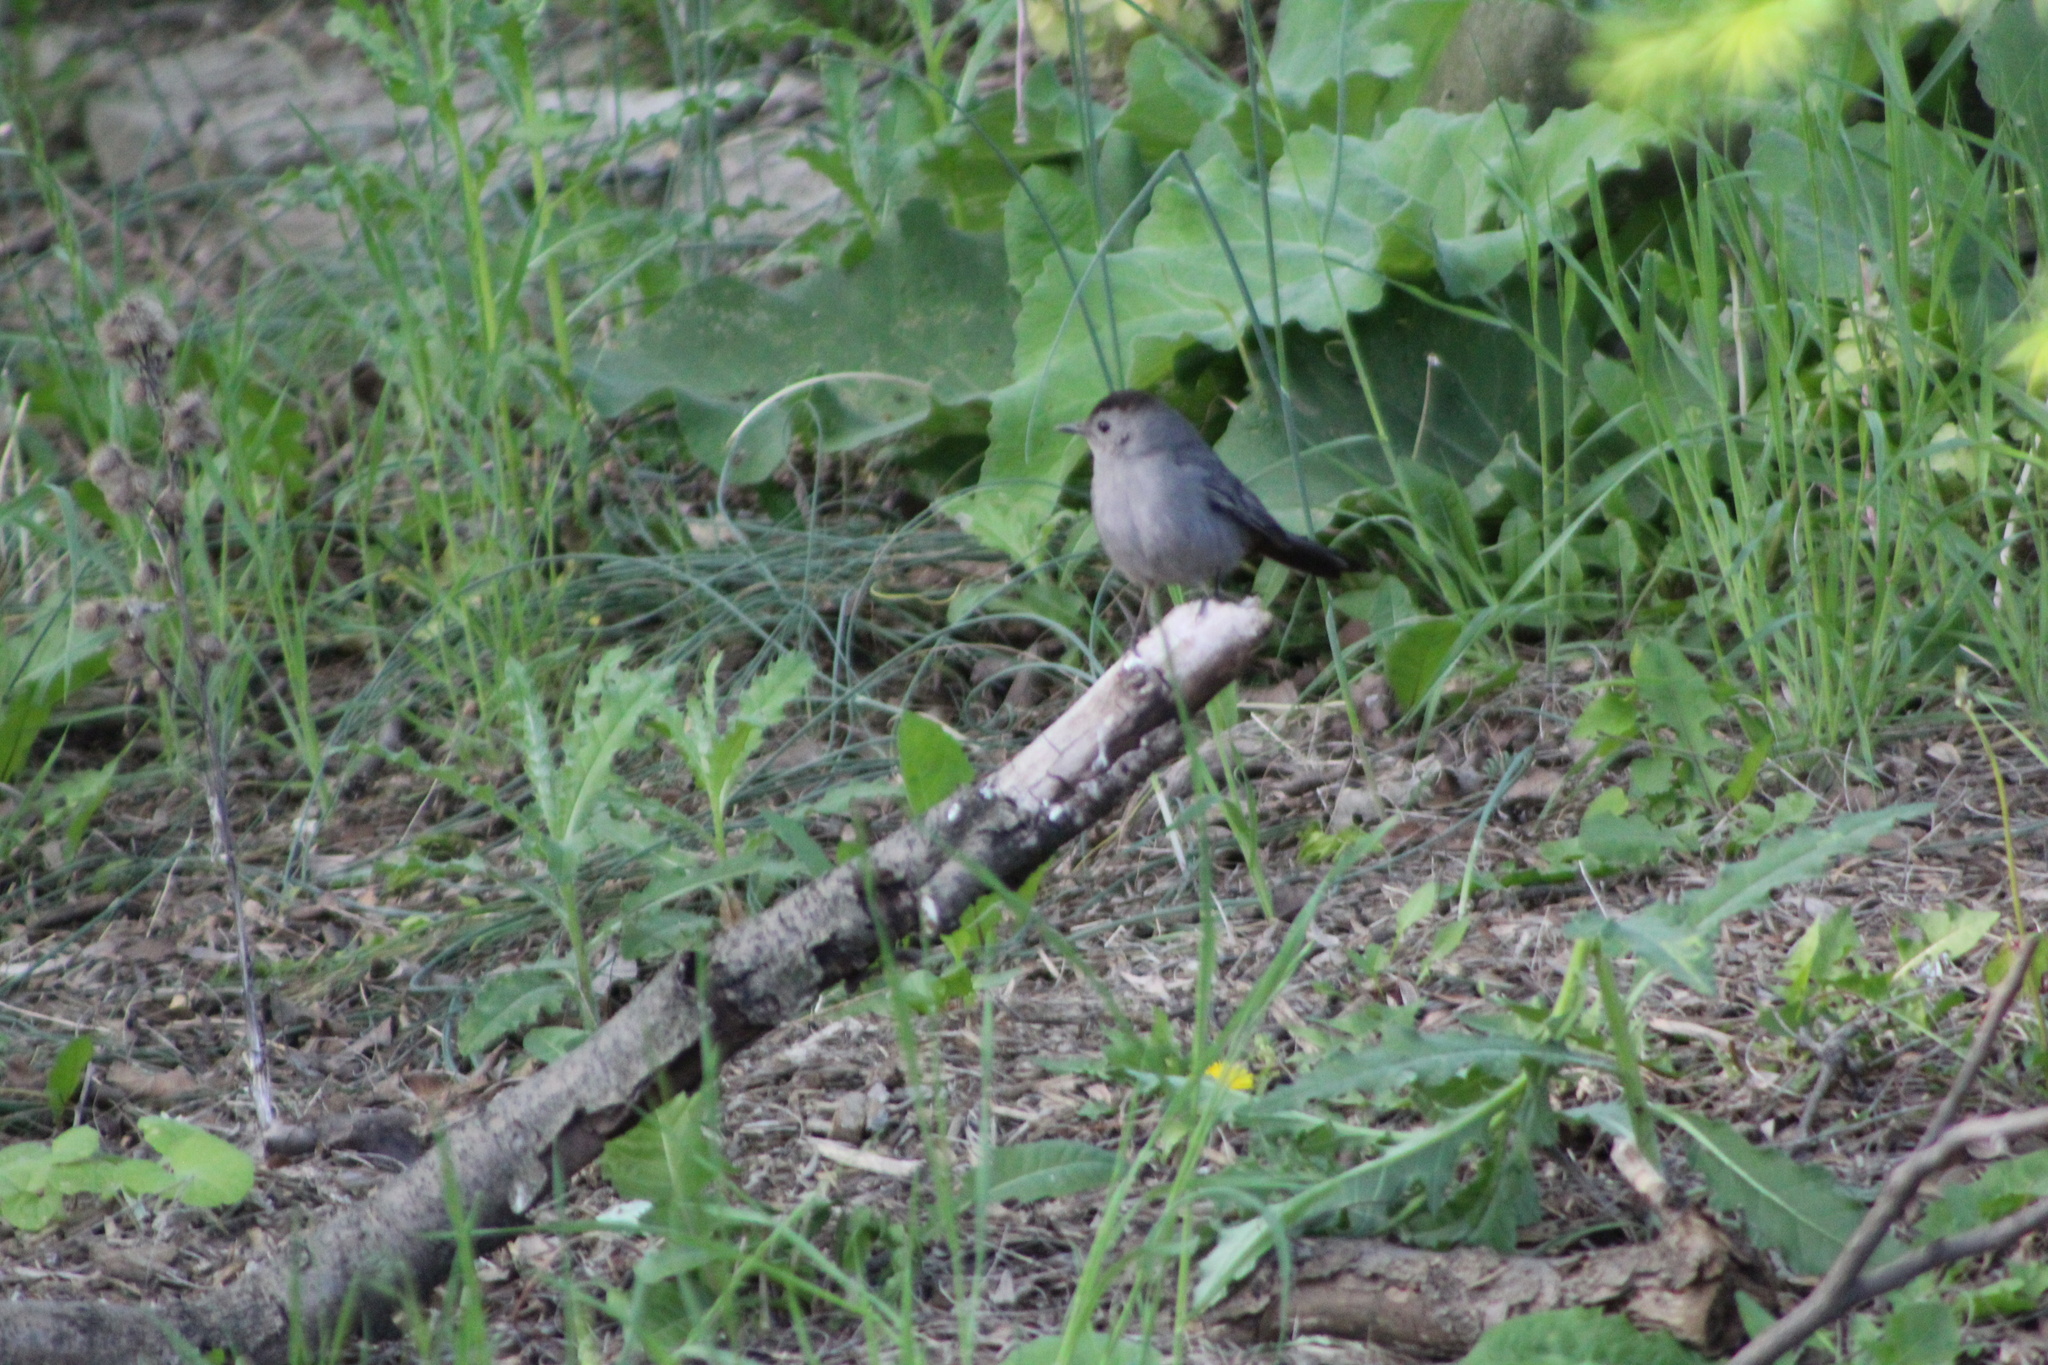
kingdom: Animalia
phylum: Chordata
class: Aves
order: Passeriformes
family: Mimidae
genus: Dumetella
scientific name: Dumetella carolinensis
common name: Gray catbird
